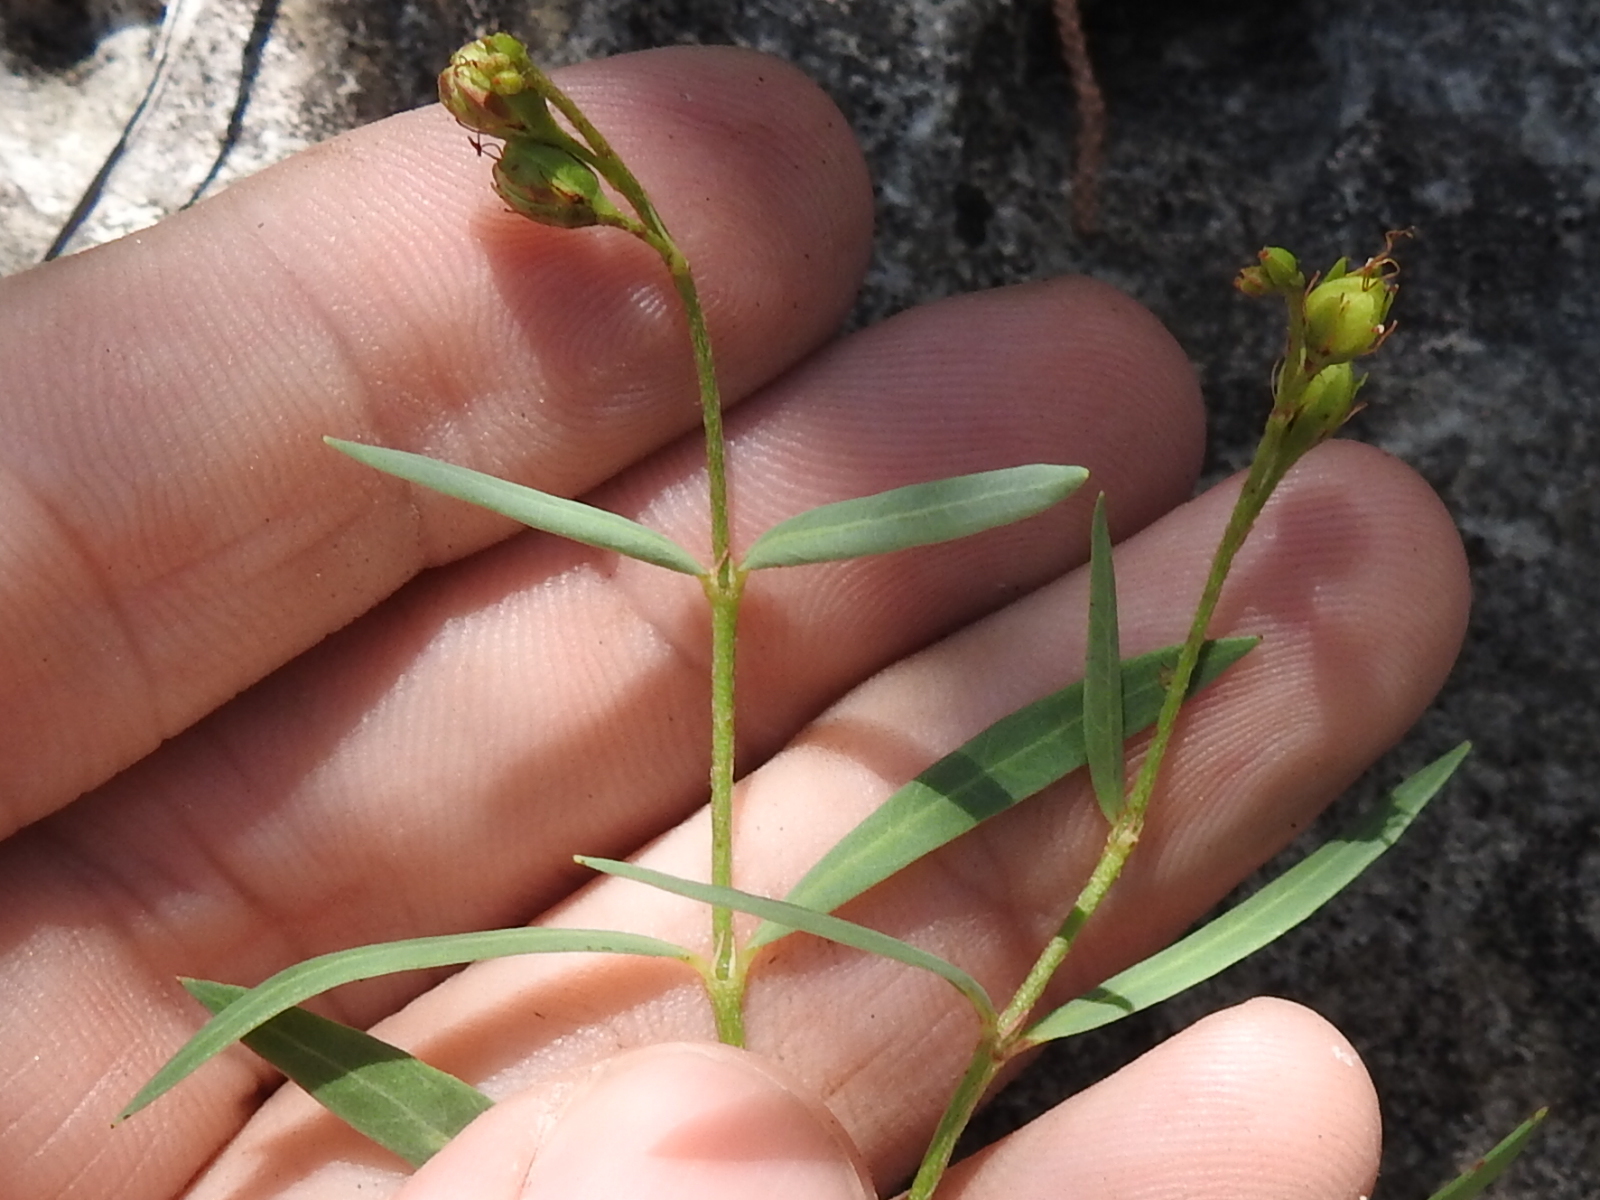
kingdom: Plantae
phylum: Tracheophyta
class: Magnoliopsida
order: Malpighiales
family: Malpighiaceae
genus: Galphimia
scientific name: Galphimia angustifolia
